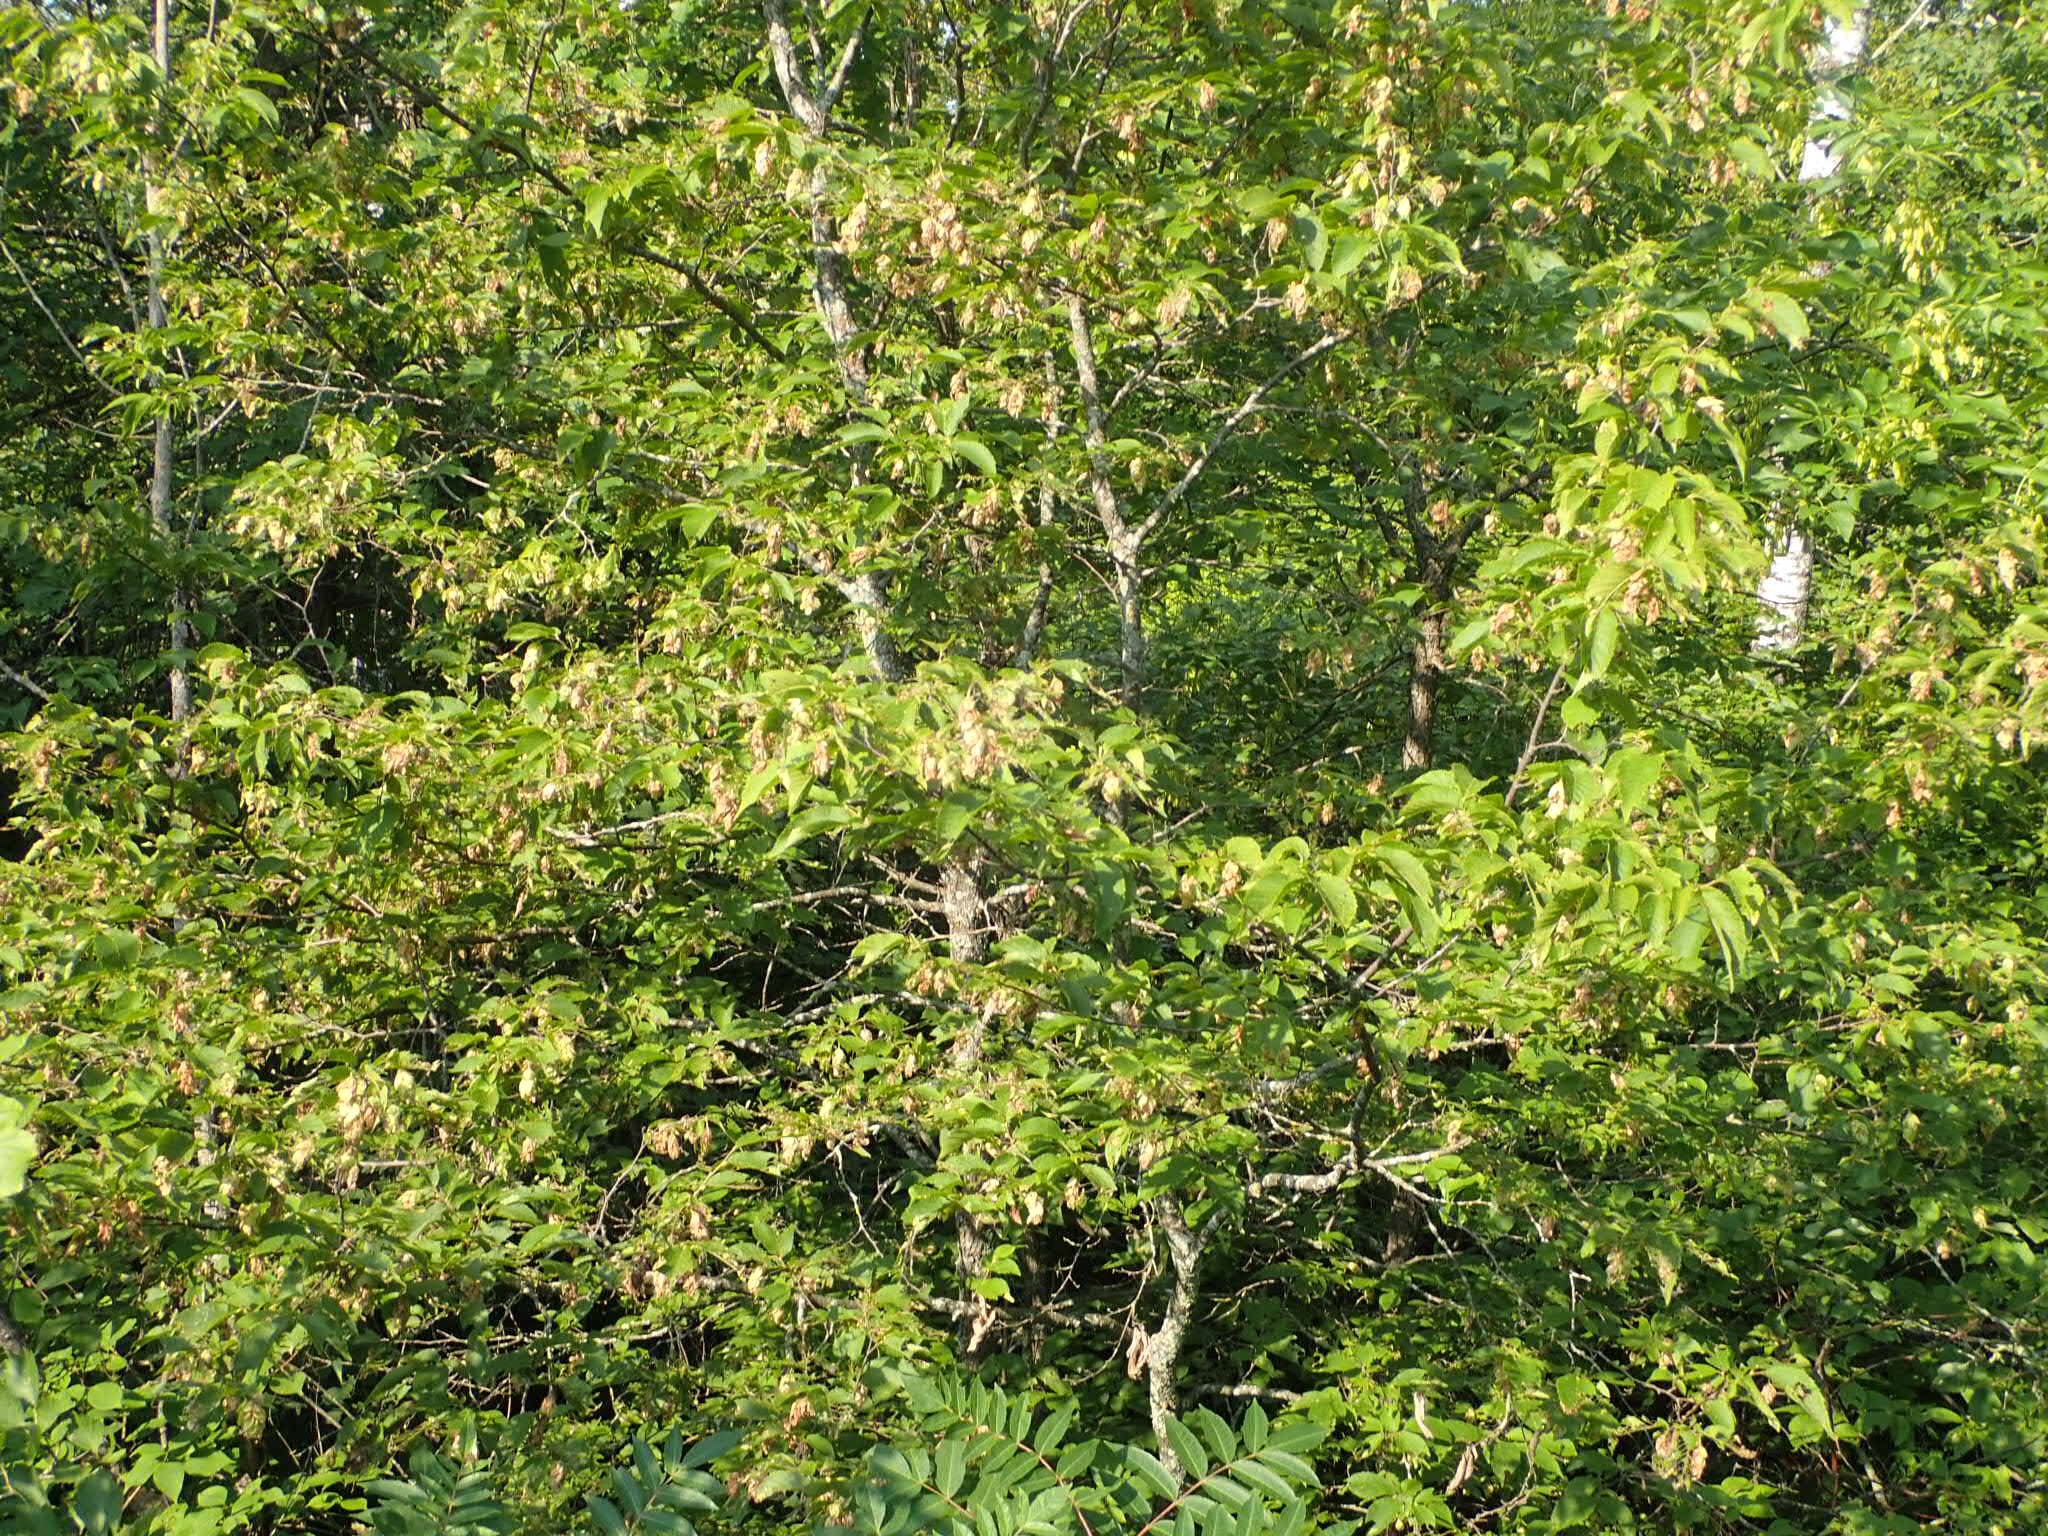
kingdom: Plantae
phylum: Tracheophyta
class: Magnoliopsida
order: Fagales
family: Betulaceae
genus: Ostrya
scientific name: Ostrya virginiana
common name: Ironwood
